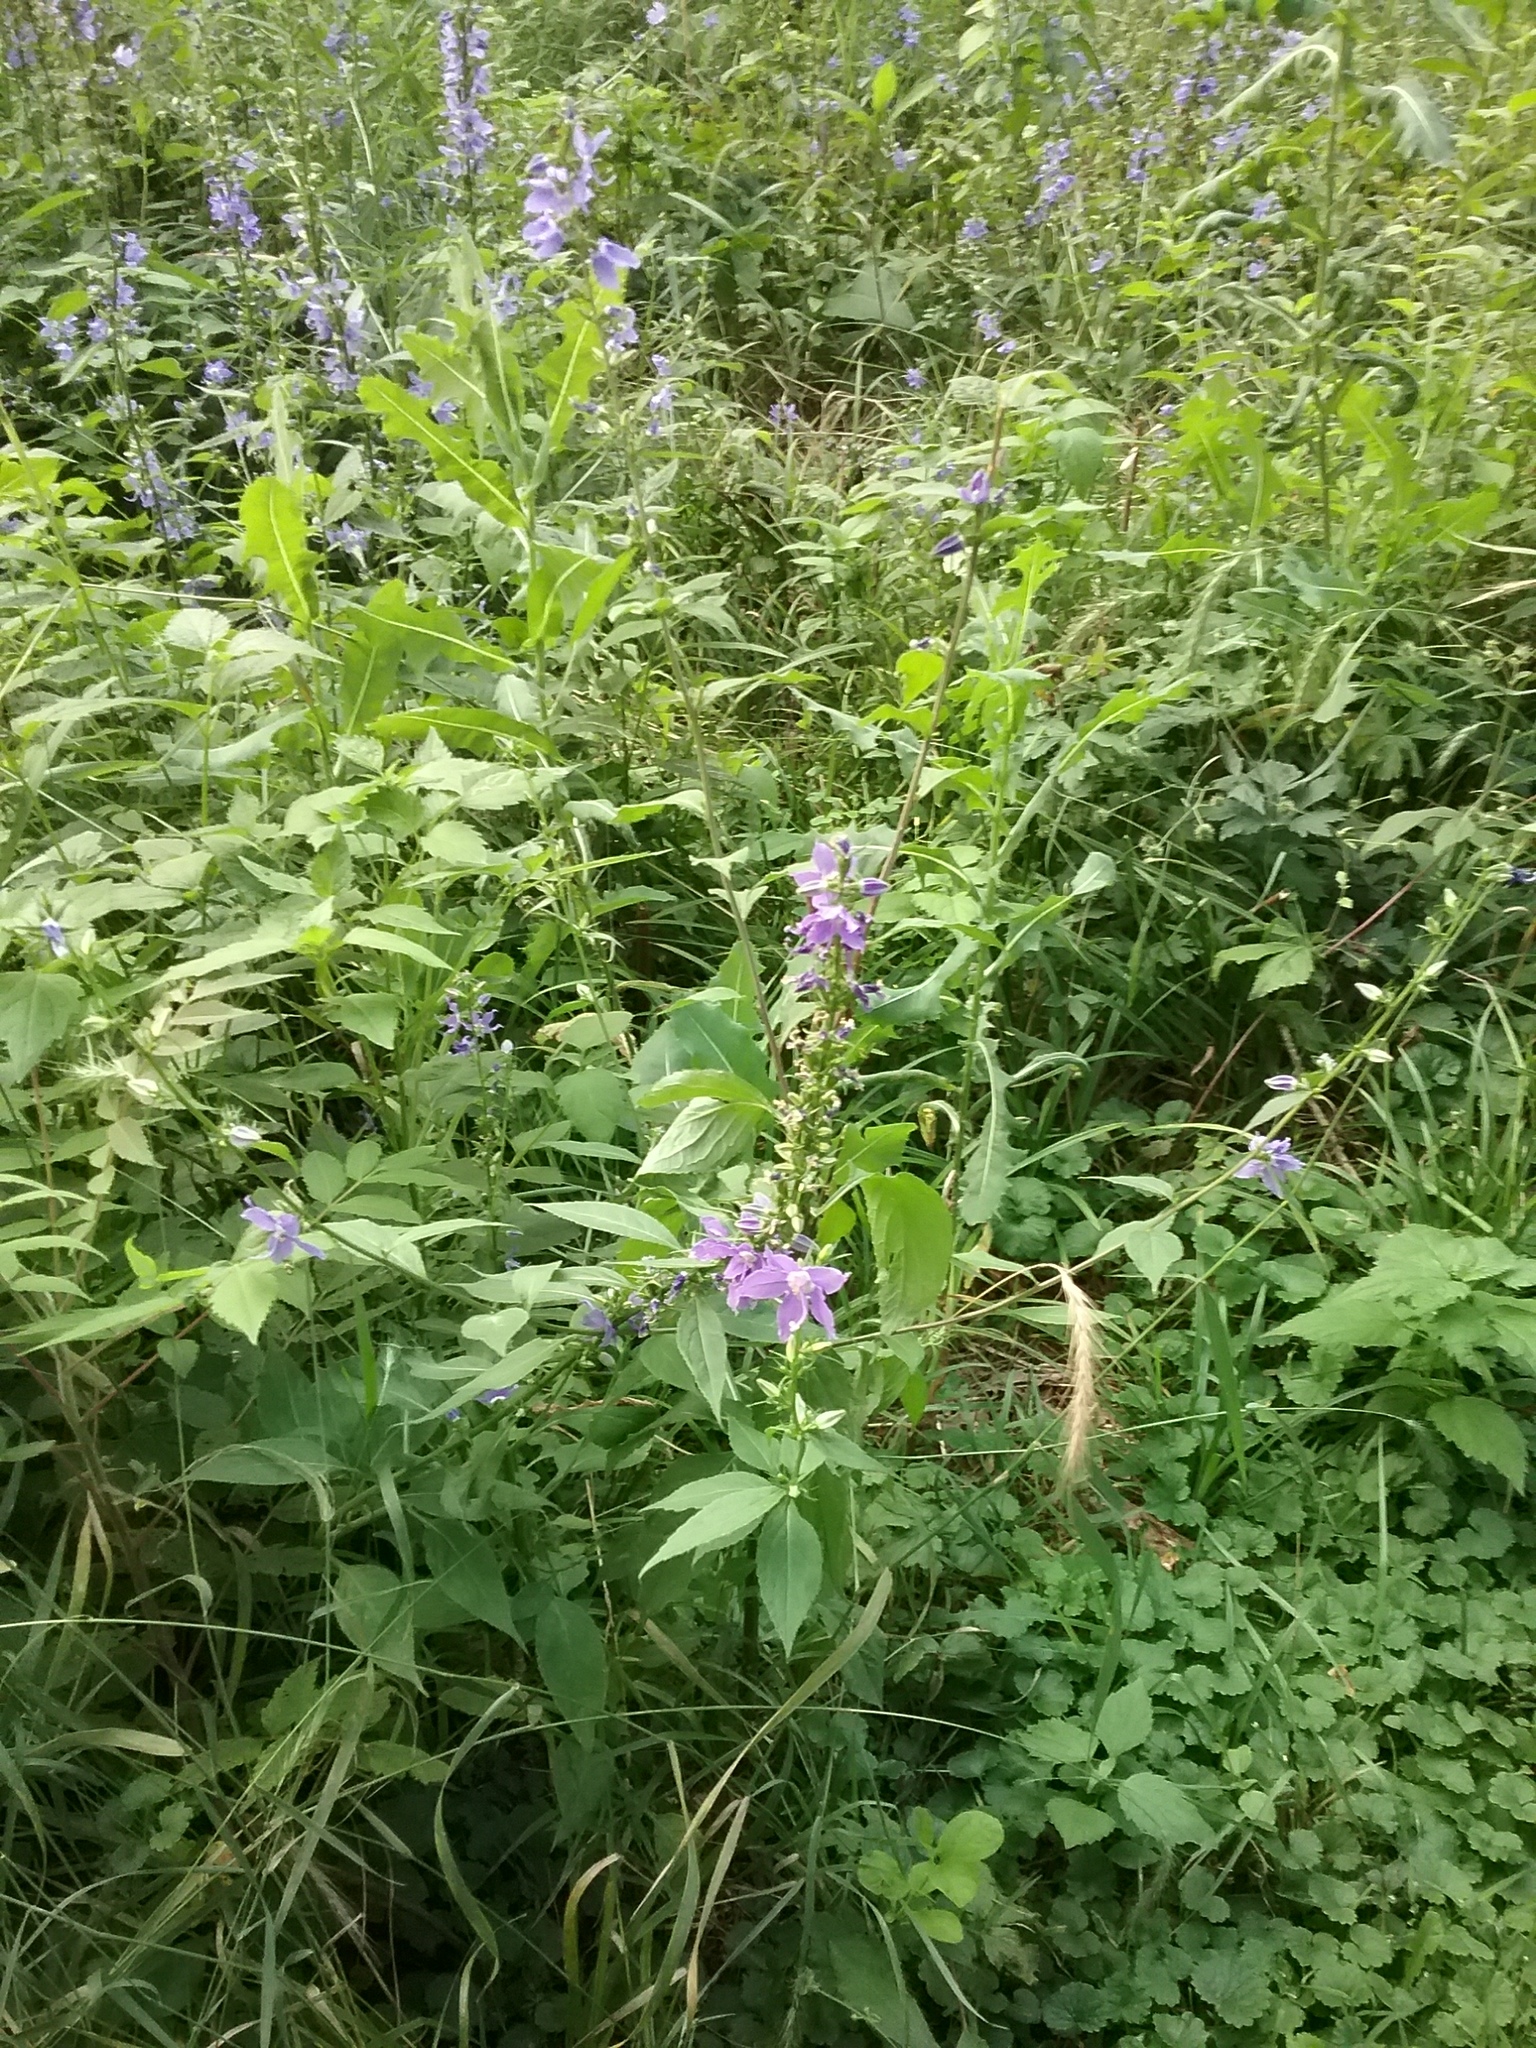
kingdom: Plantae
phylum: Tracheophyta
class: Magnoliopsida
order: Asterales
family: Campanulaceae
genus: Campanulastrum
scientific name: Campanulastrum americanum
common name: American bellflower
